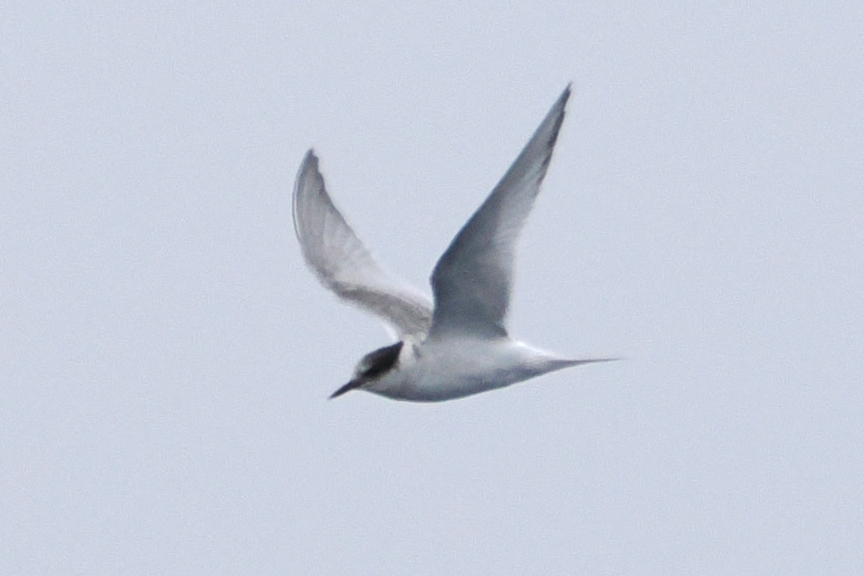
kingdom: Animalia
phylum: Chordata
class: Aves
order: Charadriiformes
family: Laridae
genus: Sterna
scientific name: Sterna vittata
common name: Antarctic tern
